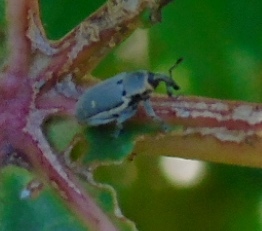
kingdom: Animalia
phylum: Arthropoda
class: Insecta
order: Coleoptera
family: Curculionidae
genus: Trichobaris
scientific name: Trichobaris
